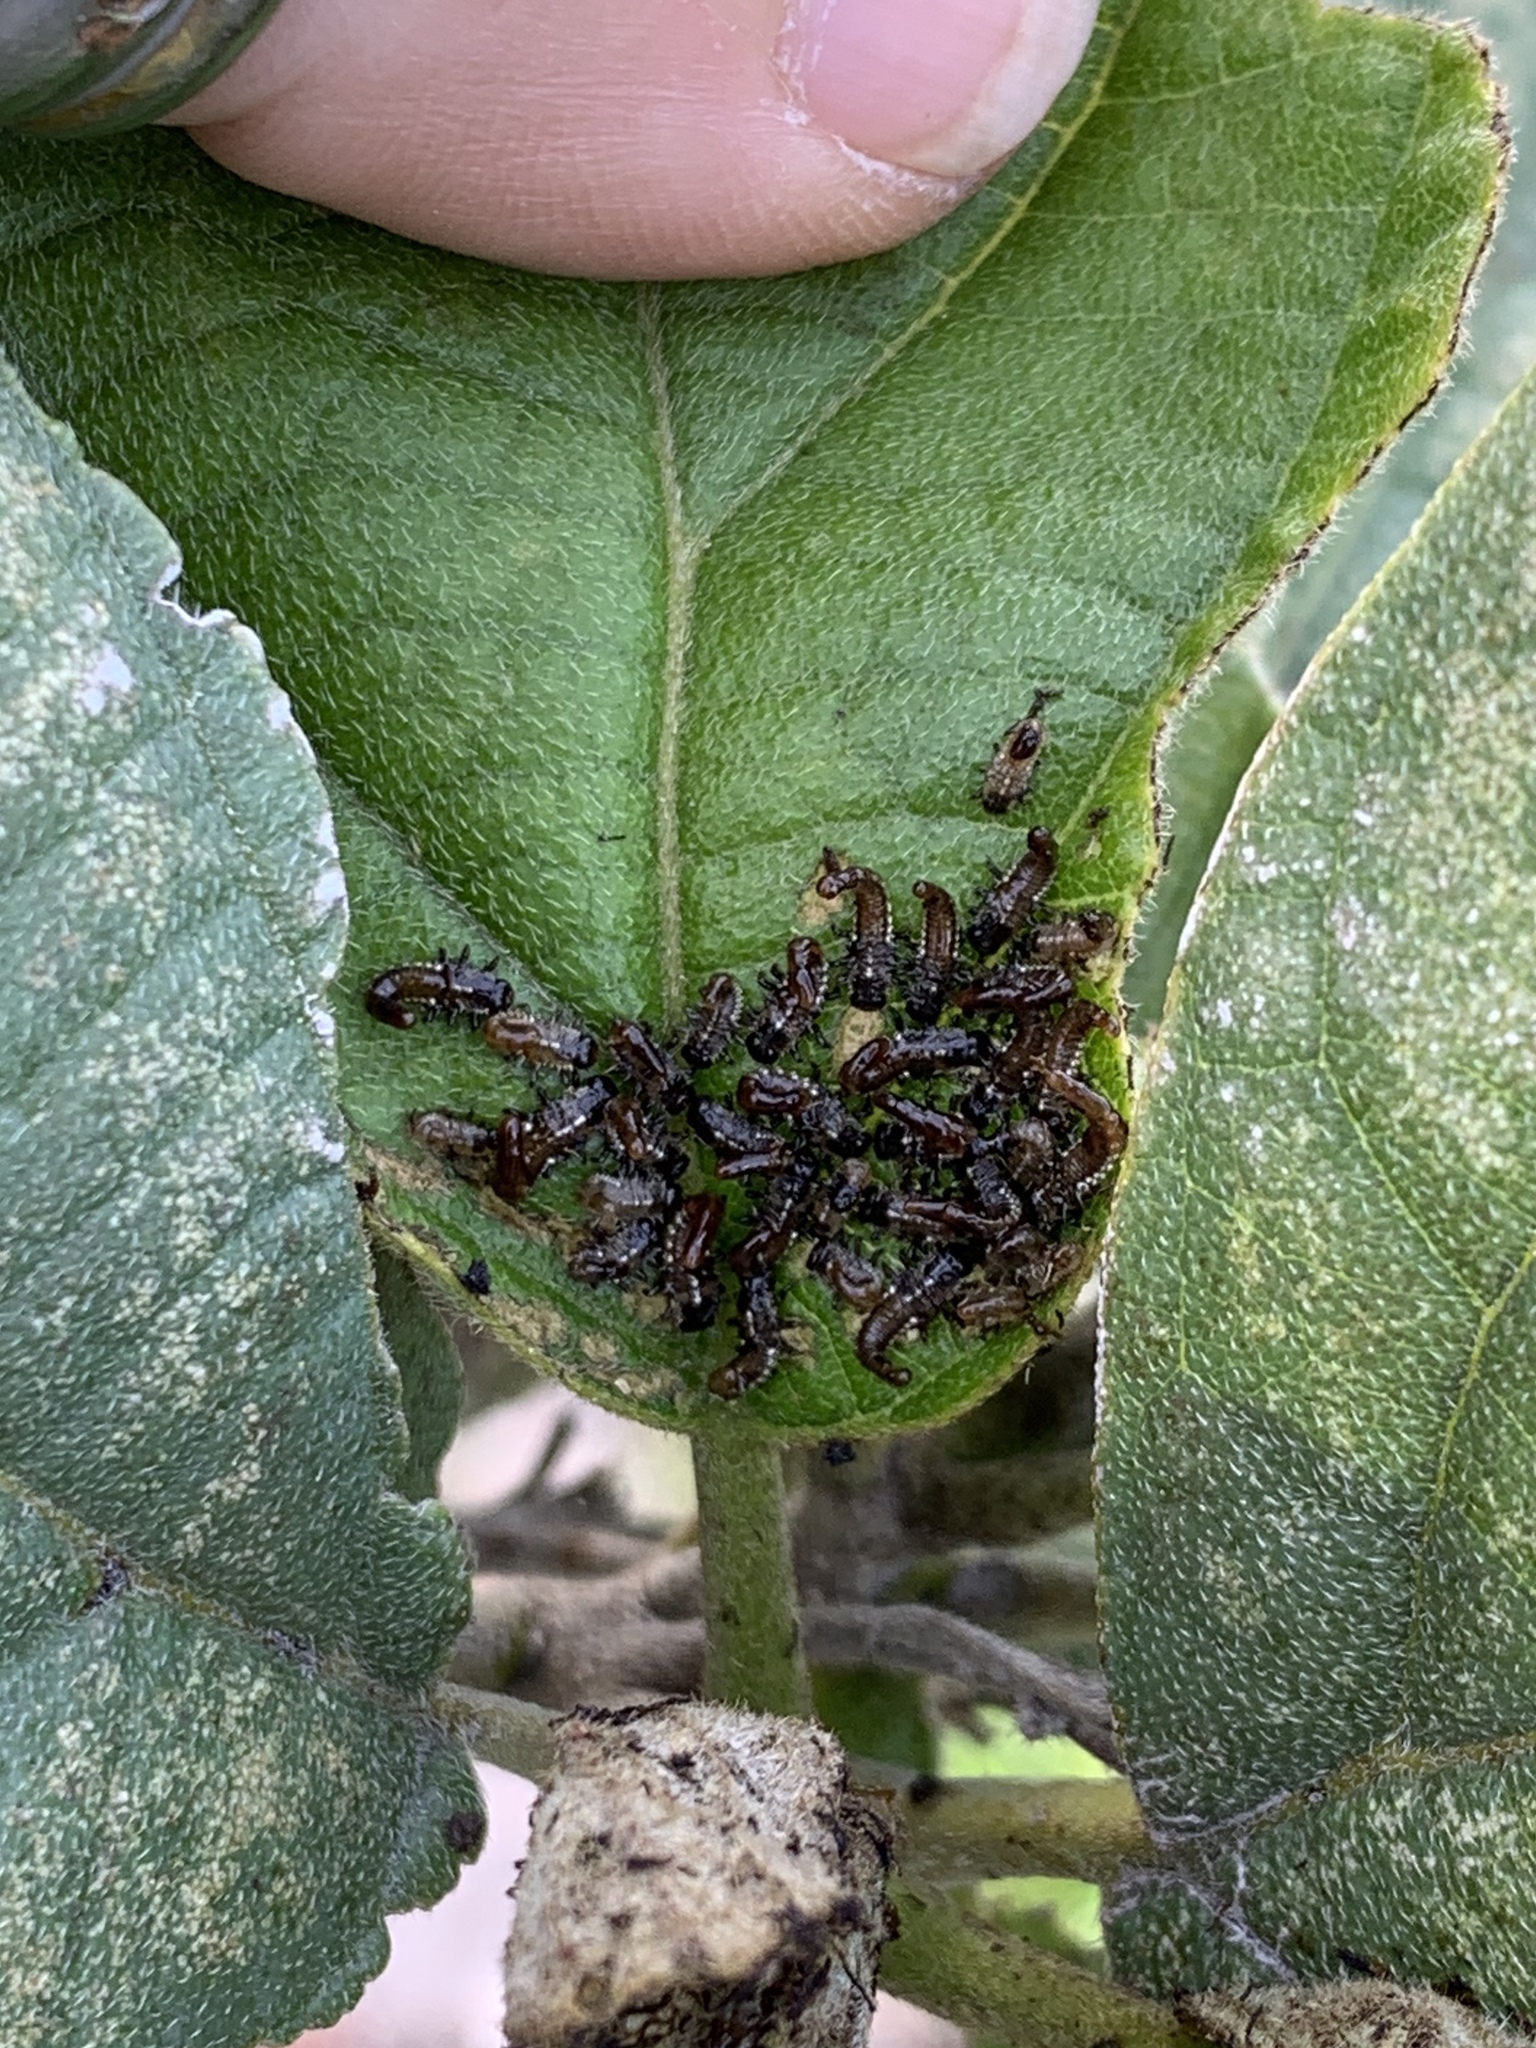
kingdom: Animalia
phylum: Arthropoda
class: Insecta
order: Coleoptera
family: Chrysomelidae
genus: Eurypepla
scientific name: Eurypepla calochroma
